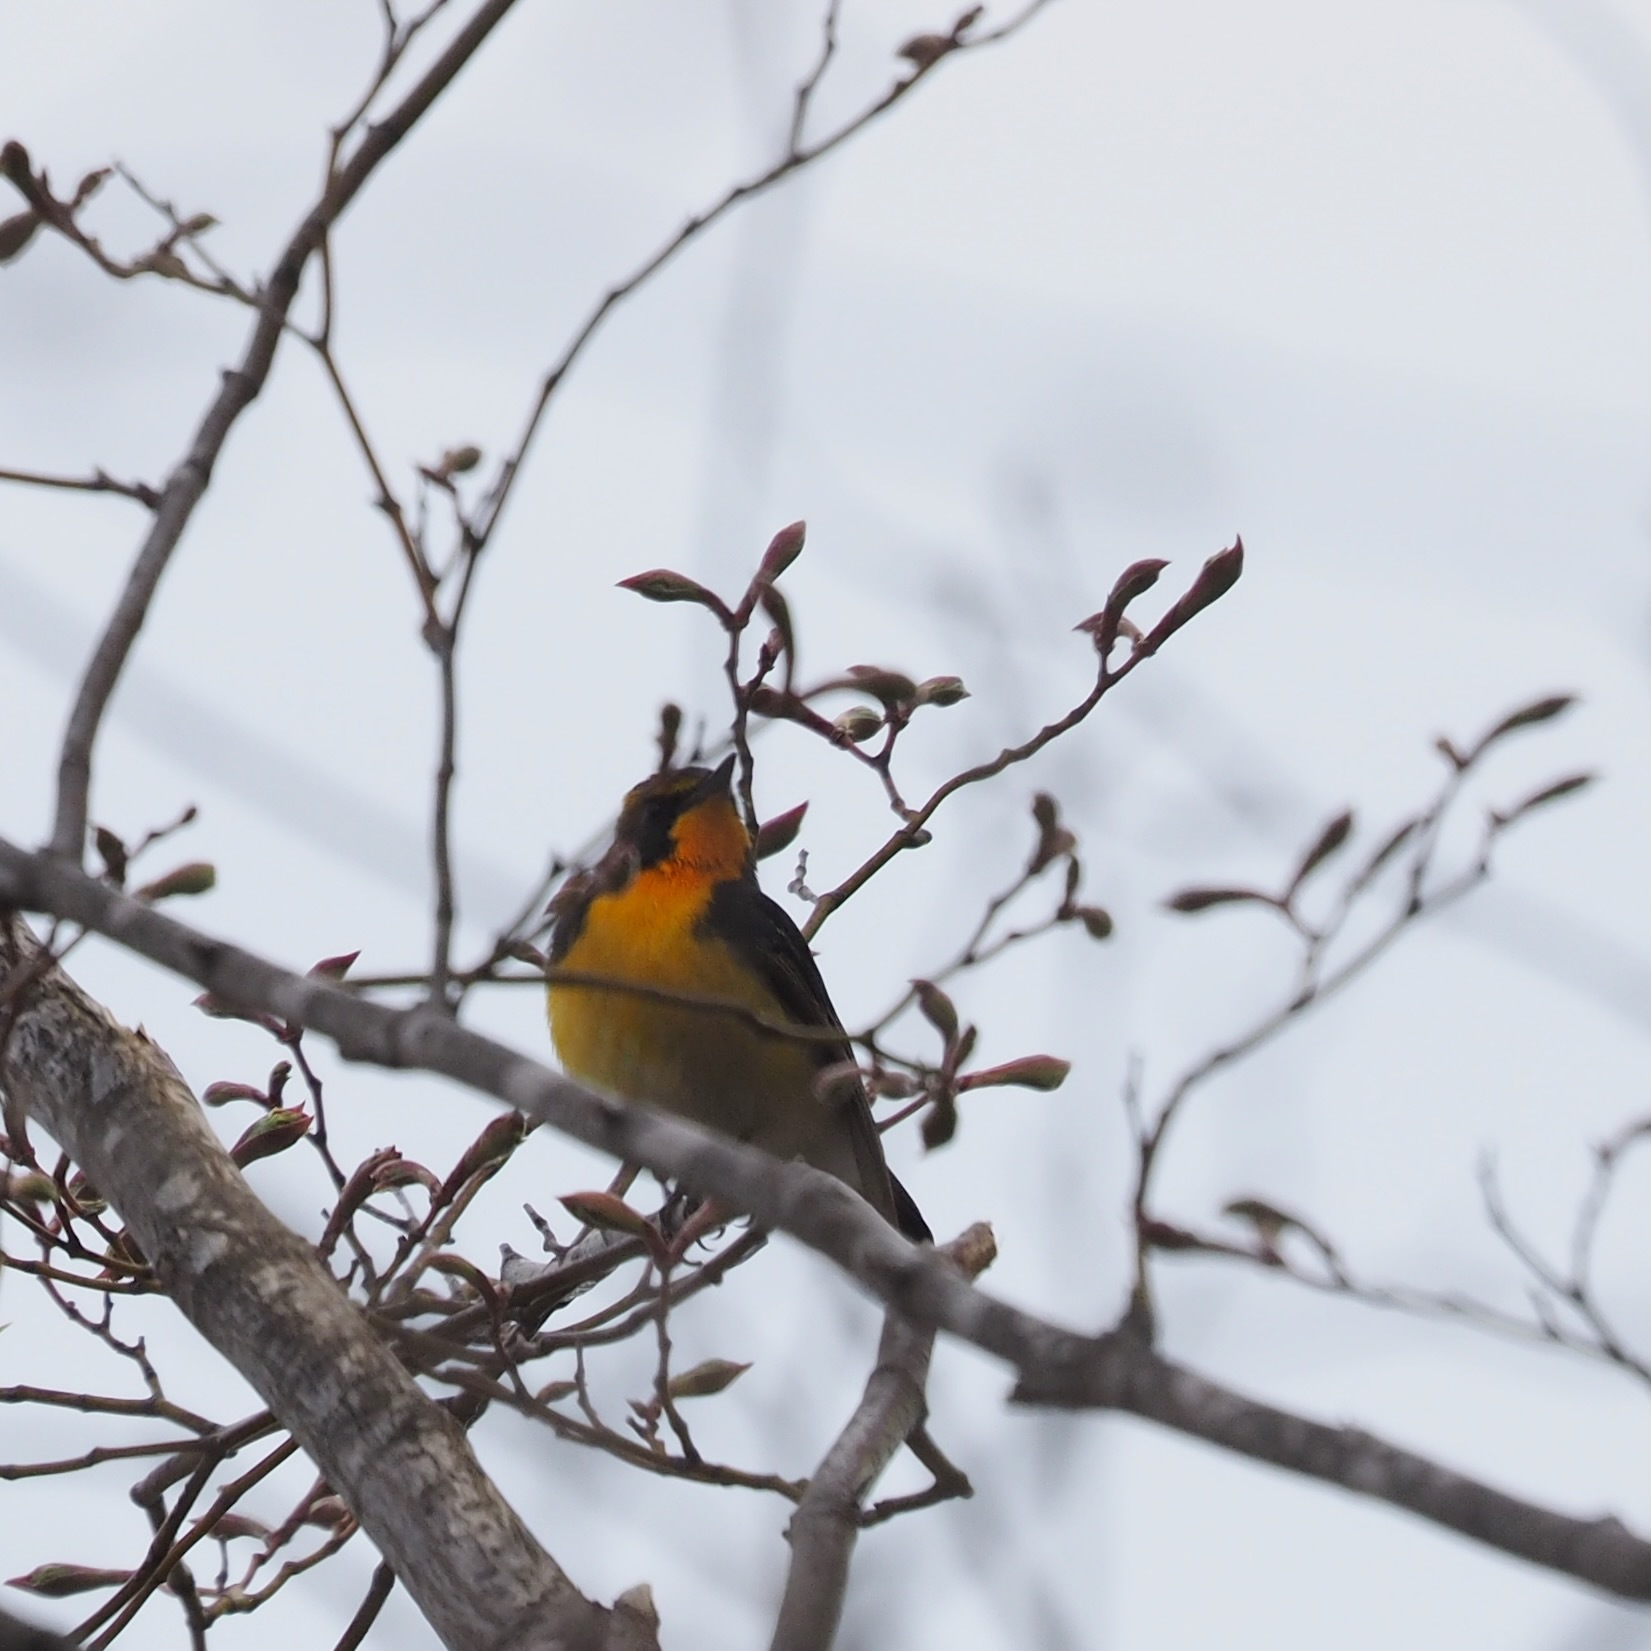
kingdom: Animalia
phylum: Chordata
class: Aves
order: Passeriformes
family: Muscicapidae
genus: Ficedula
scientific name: Ficedula narcissina
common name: Narcissus flycatcher
